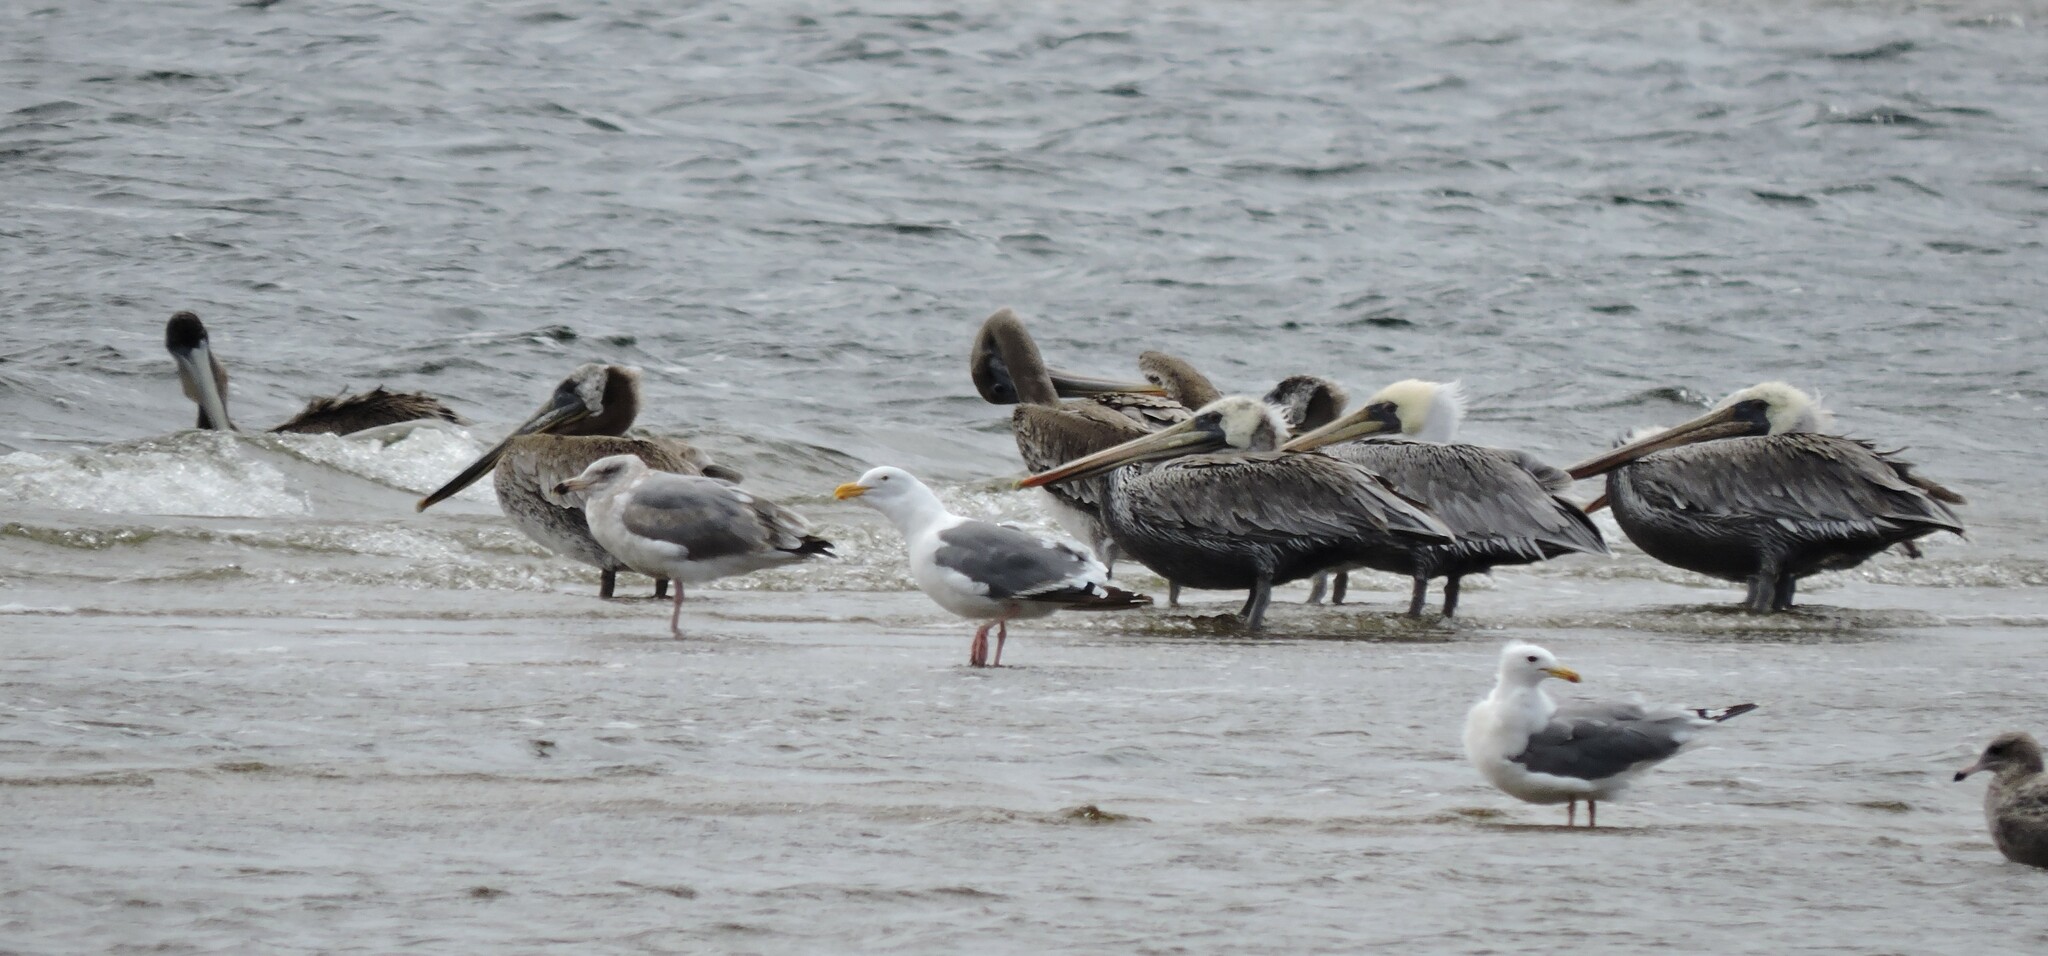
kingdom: Animalia
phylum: Chordata
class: Aves
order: Pelecaniformes
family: Pelecanidae
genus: Pelecanus
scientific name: Pelecanus occidentalis
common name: Brown pelican
